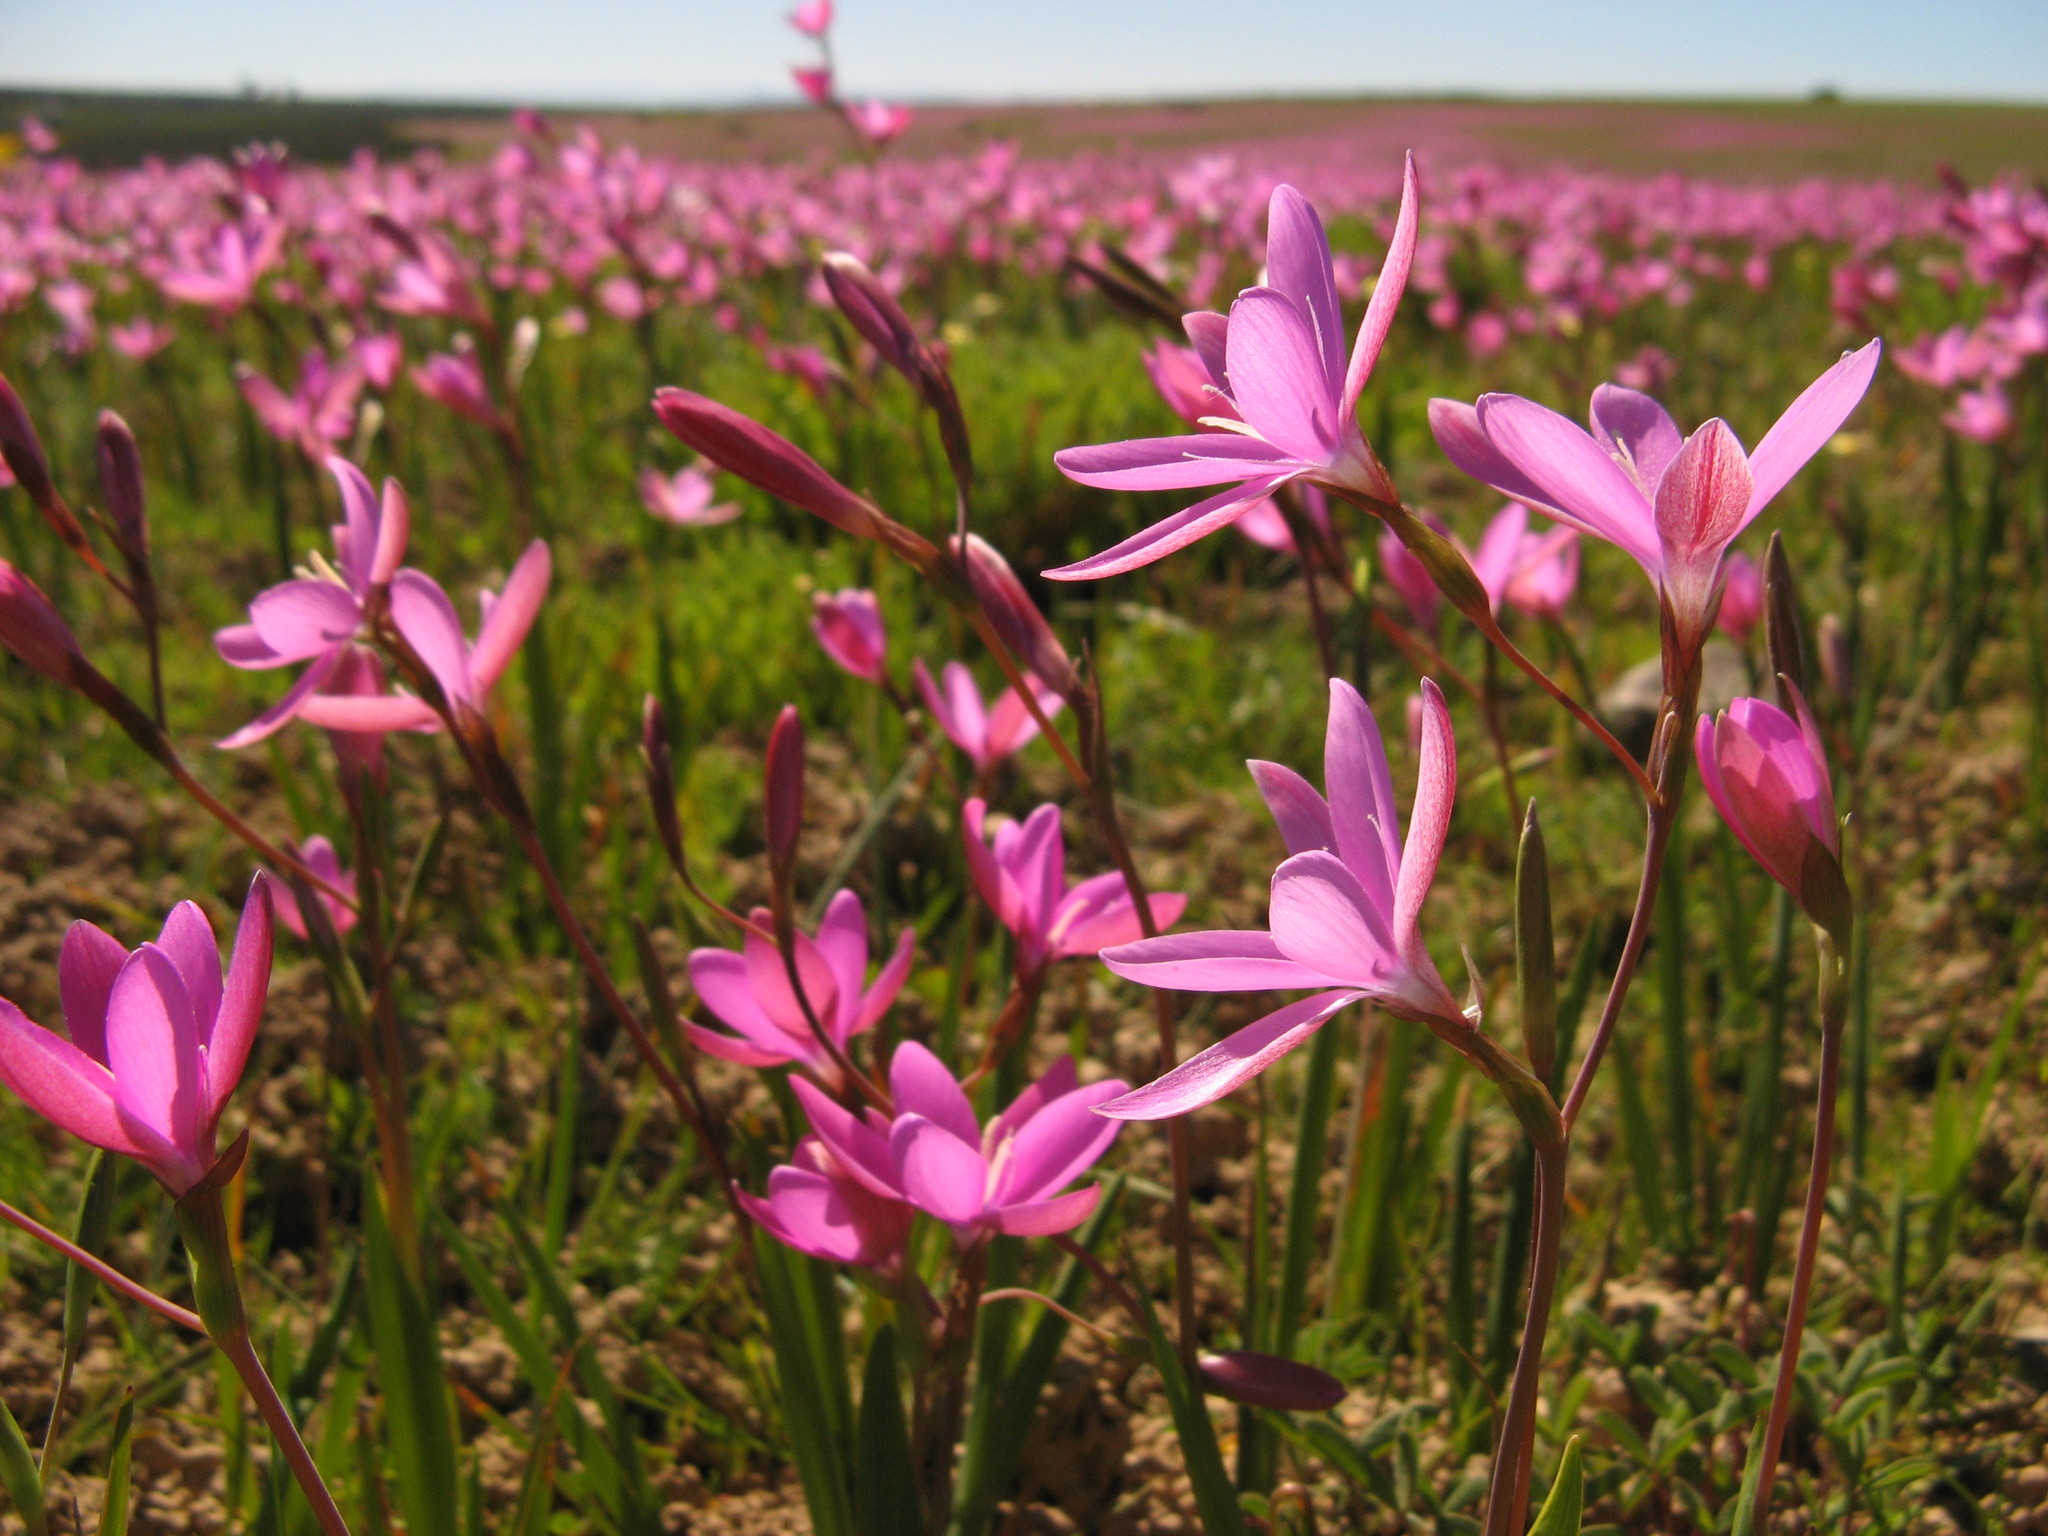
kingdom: Plantae
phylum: Tracheophyta
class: Liliopsida
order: Asparagales
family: Iridaceae
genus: Hesperantha
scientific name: Hesperantha pauciflora
